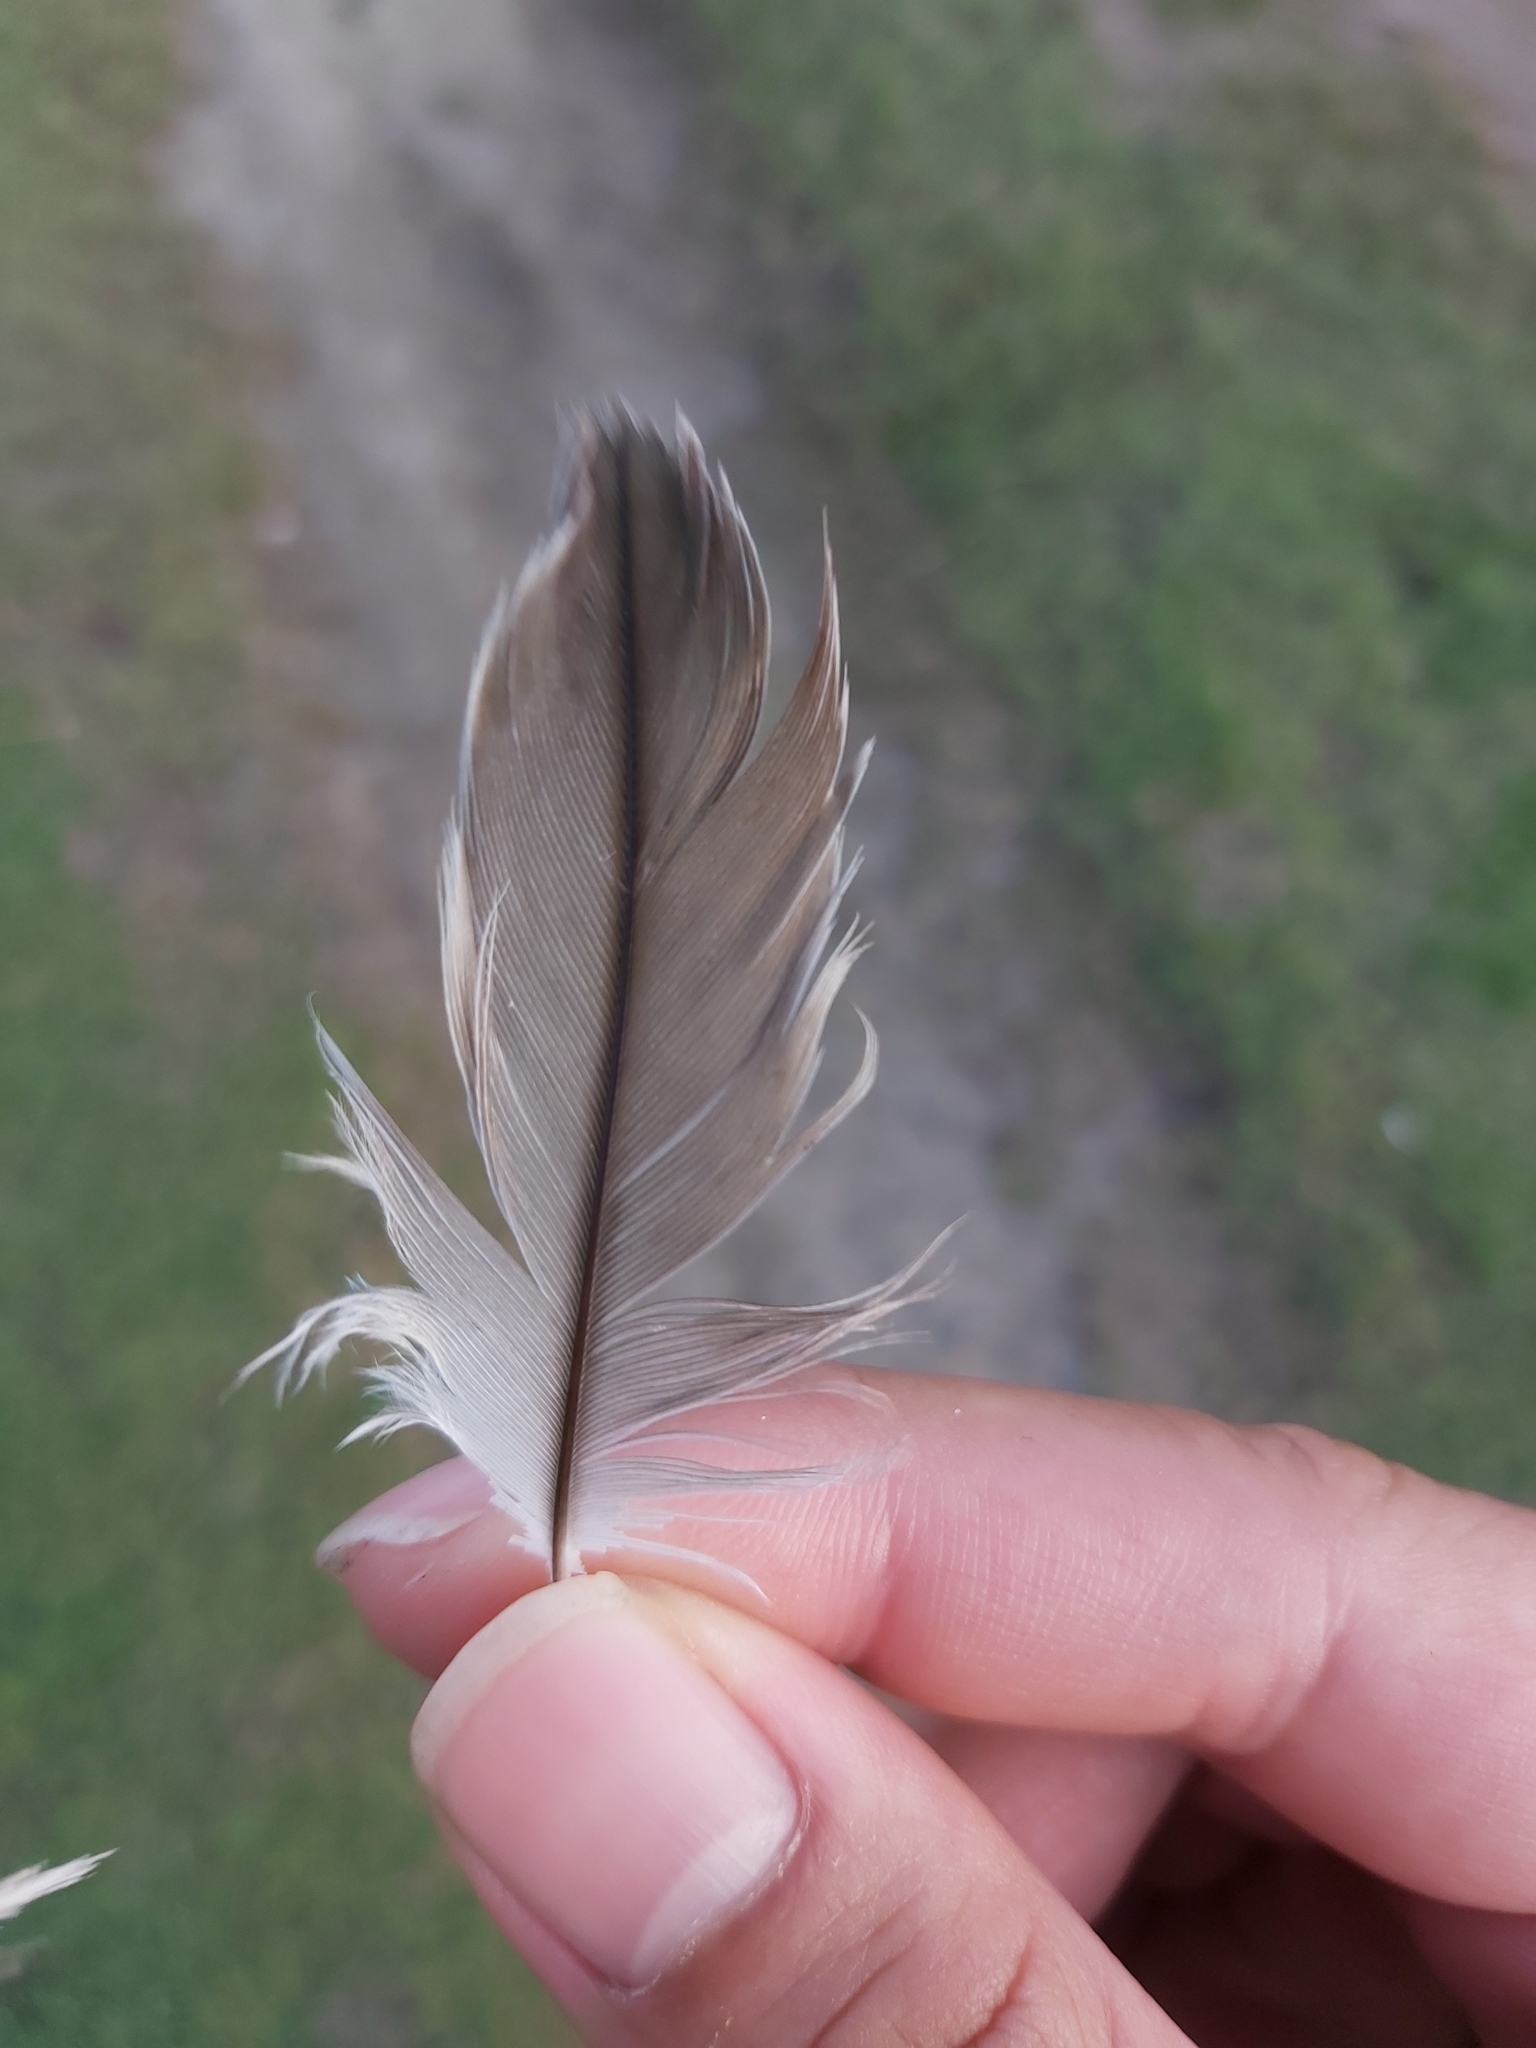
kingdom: Animalia
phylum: Chordata
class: Aves
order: Charadriiformes
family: Burhinidae
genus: Burhinus
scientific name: Burhinus grallarius
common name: Bush stone-curlew
